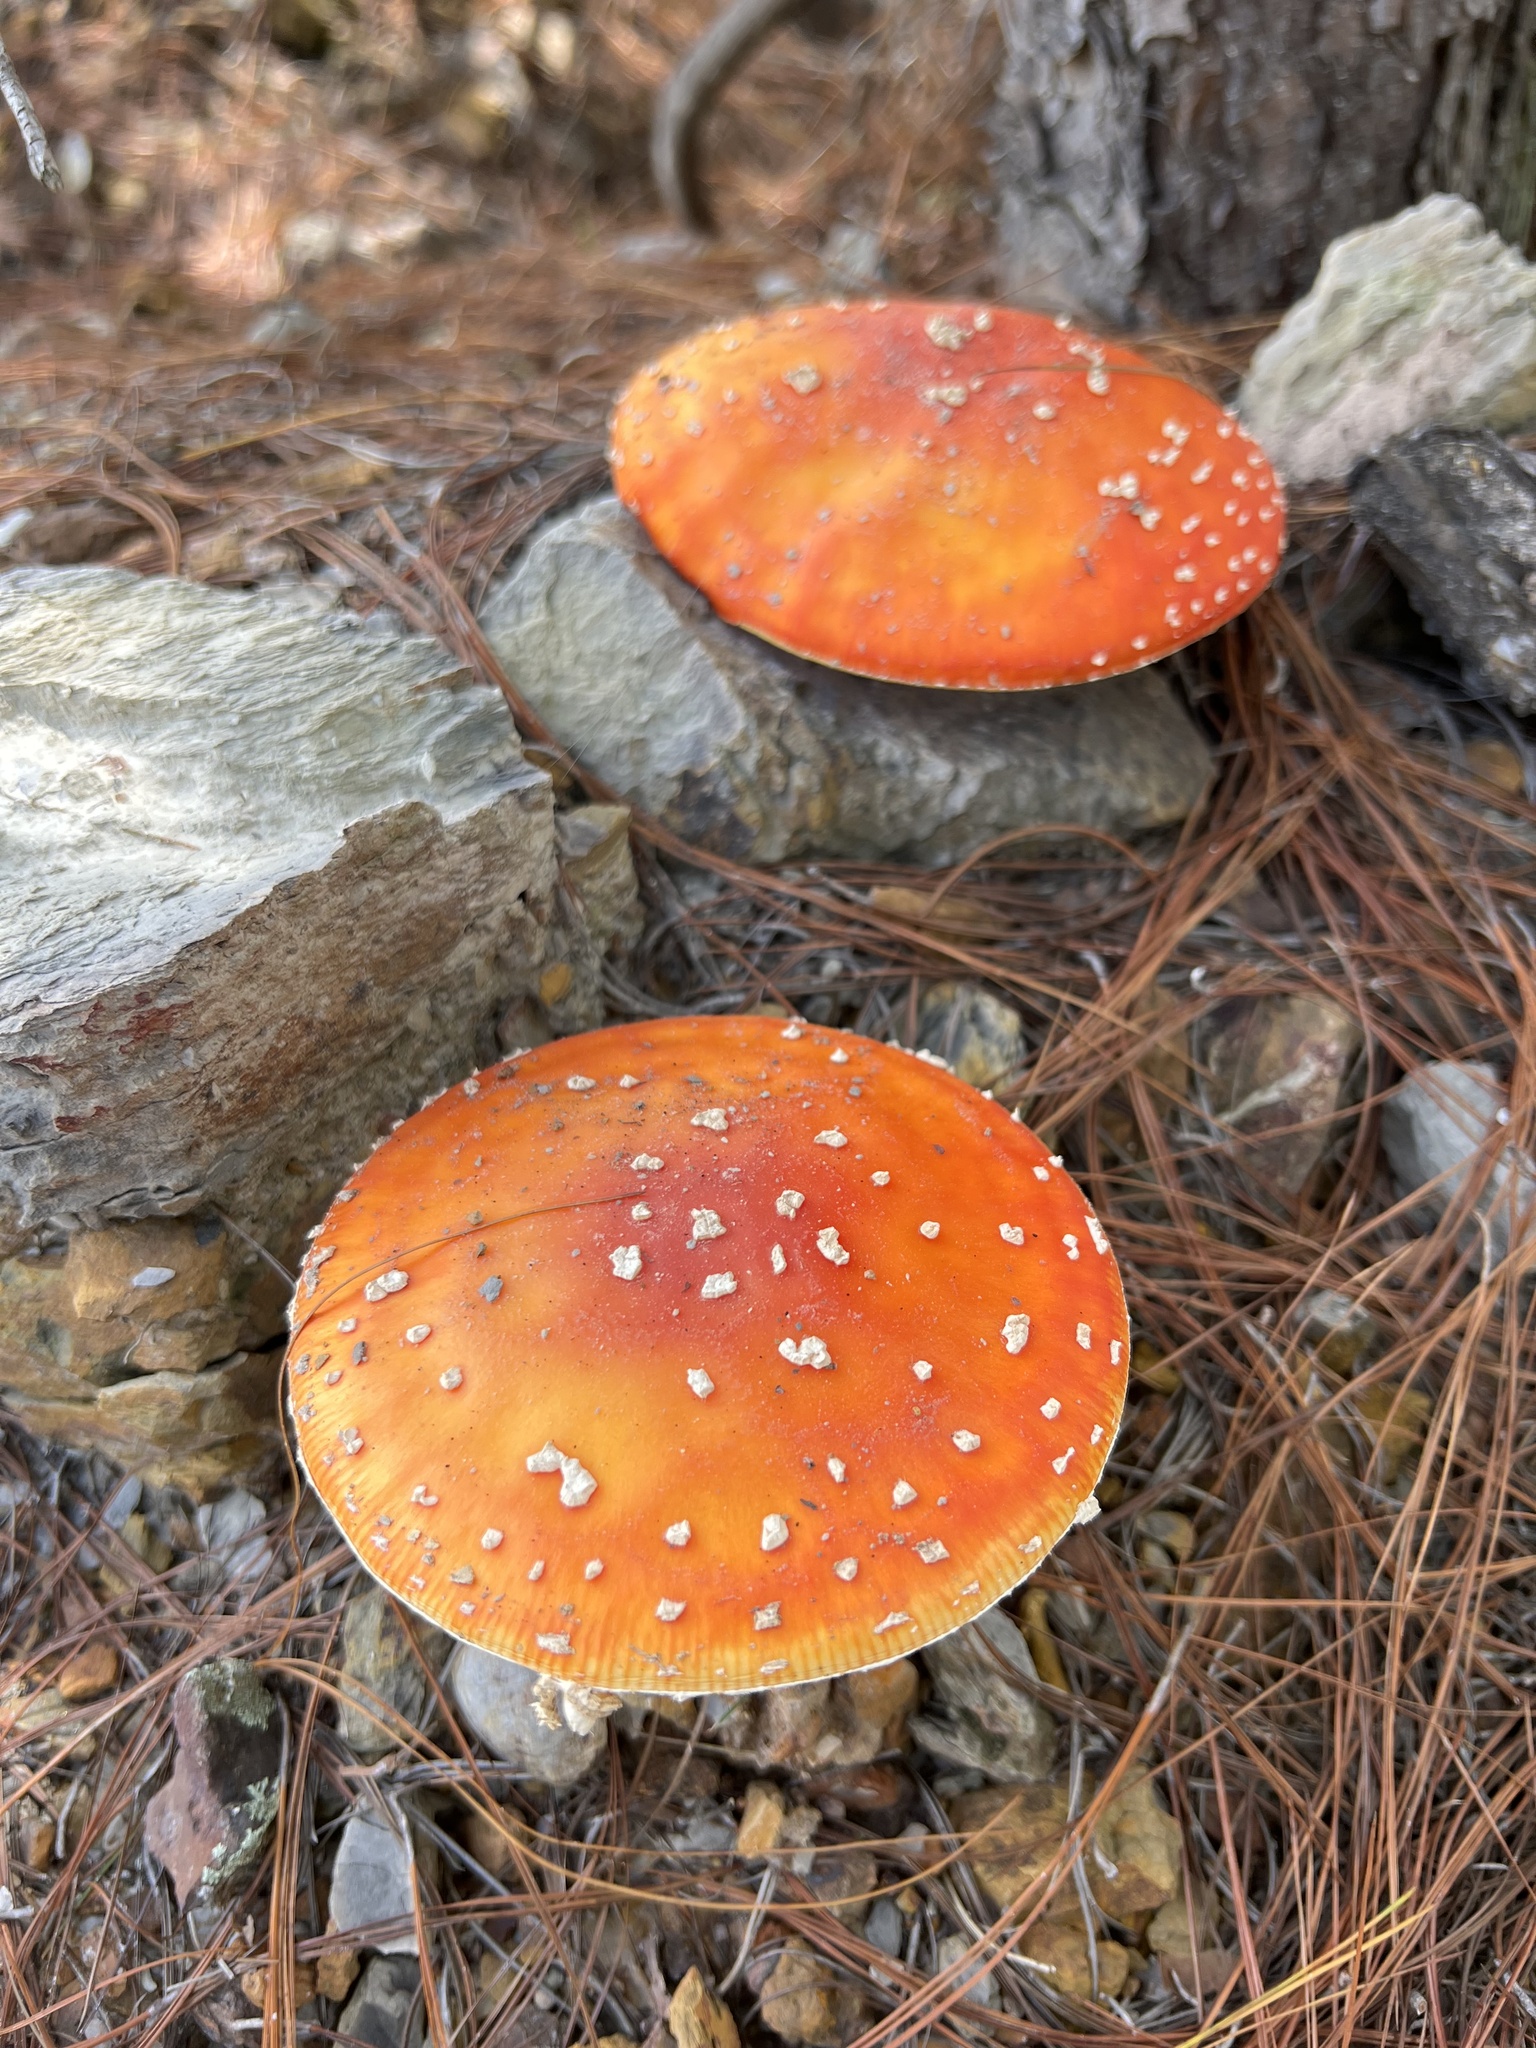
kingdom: Fungi
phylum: Basidiomycota
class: Agaricomycetes
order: Agaricales
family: Amanitaceae
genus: Amanita
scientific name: Amanita muscaria
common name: Fly agaric
